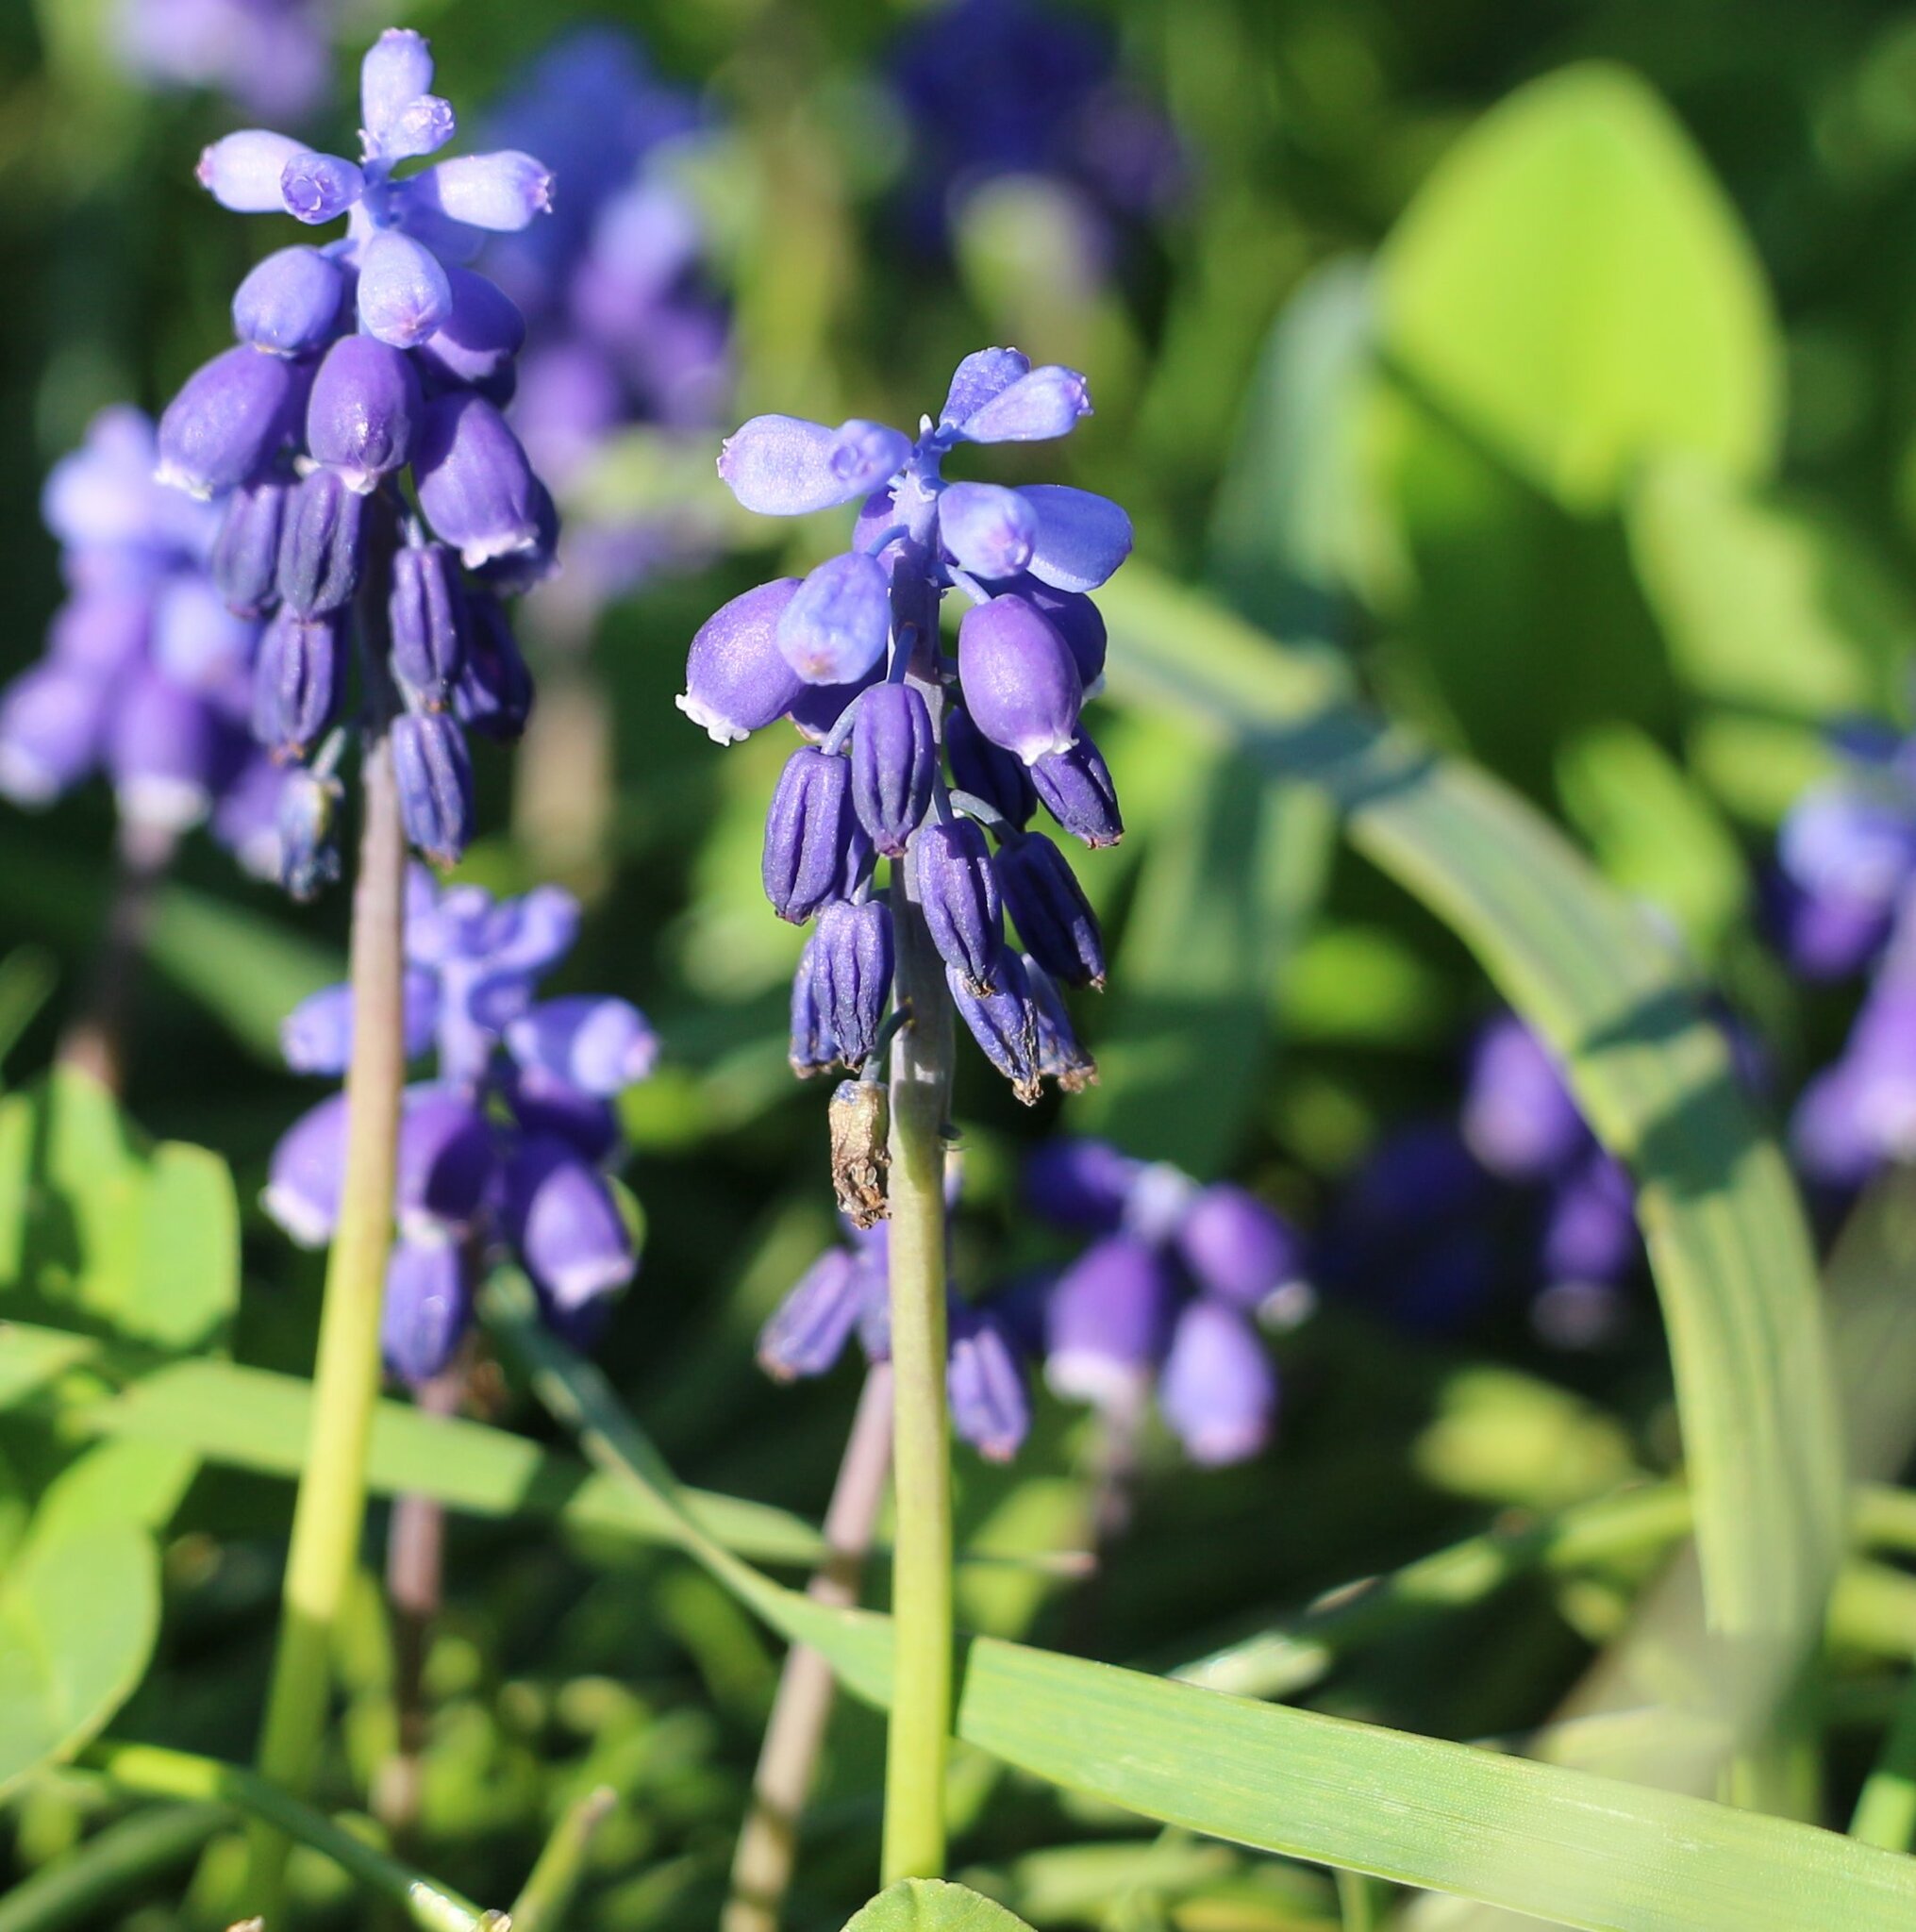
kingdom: Plantae
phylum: Tracheophyta
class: Liliopsida
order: Asparagales
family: Asparagaceae
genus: Muscari
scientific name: Muscari neglectum
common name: Grape-hyacinth
